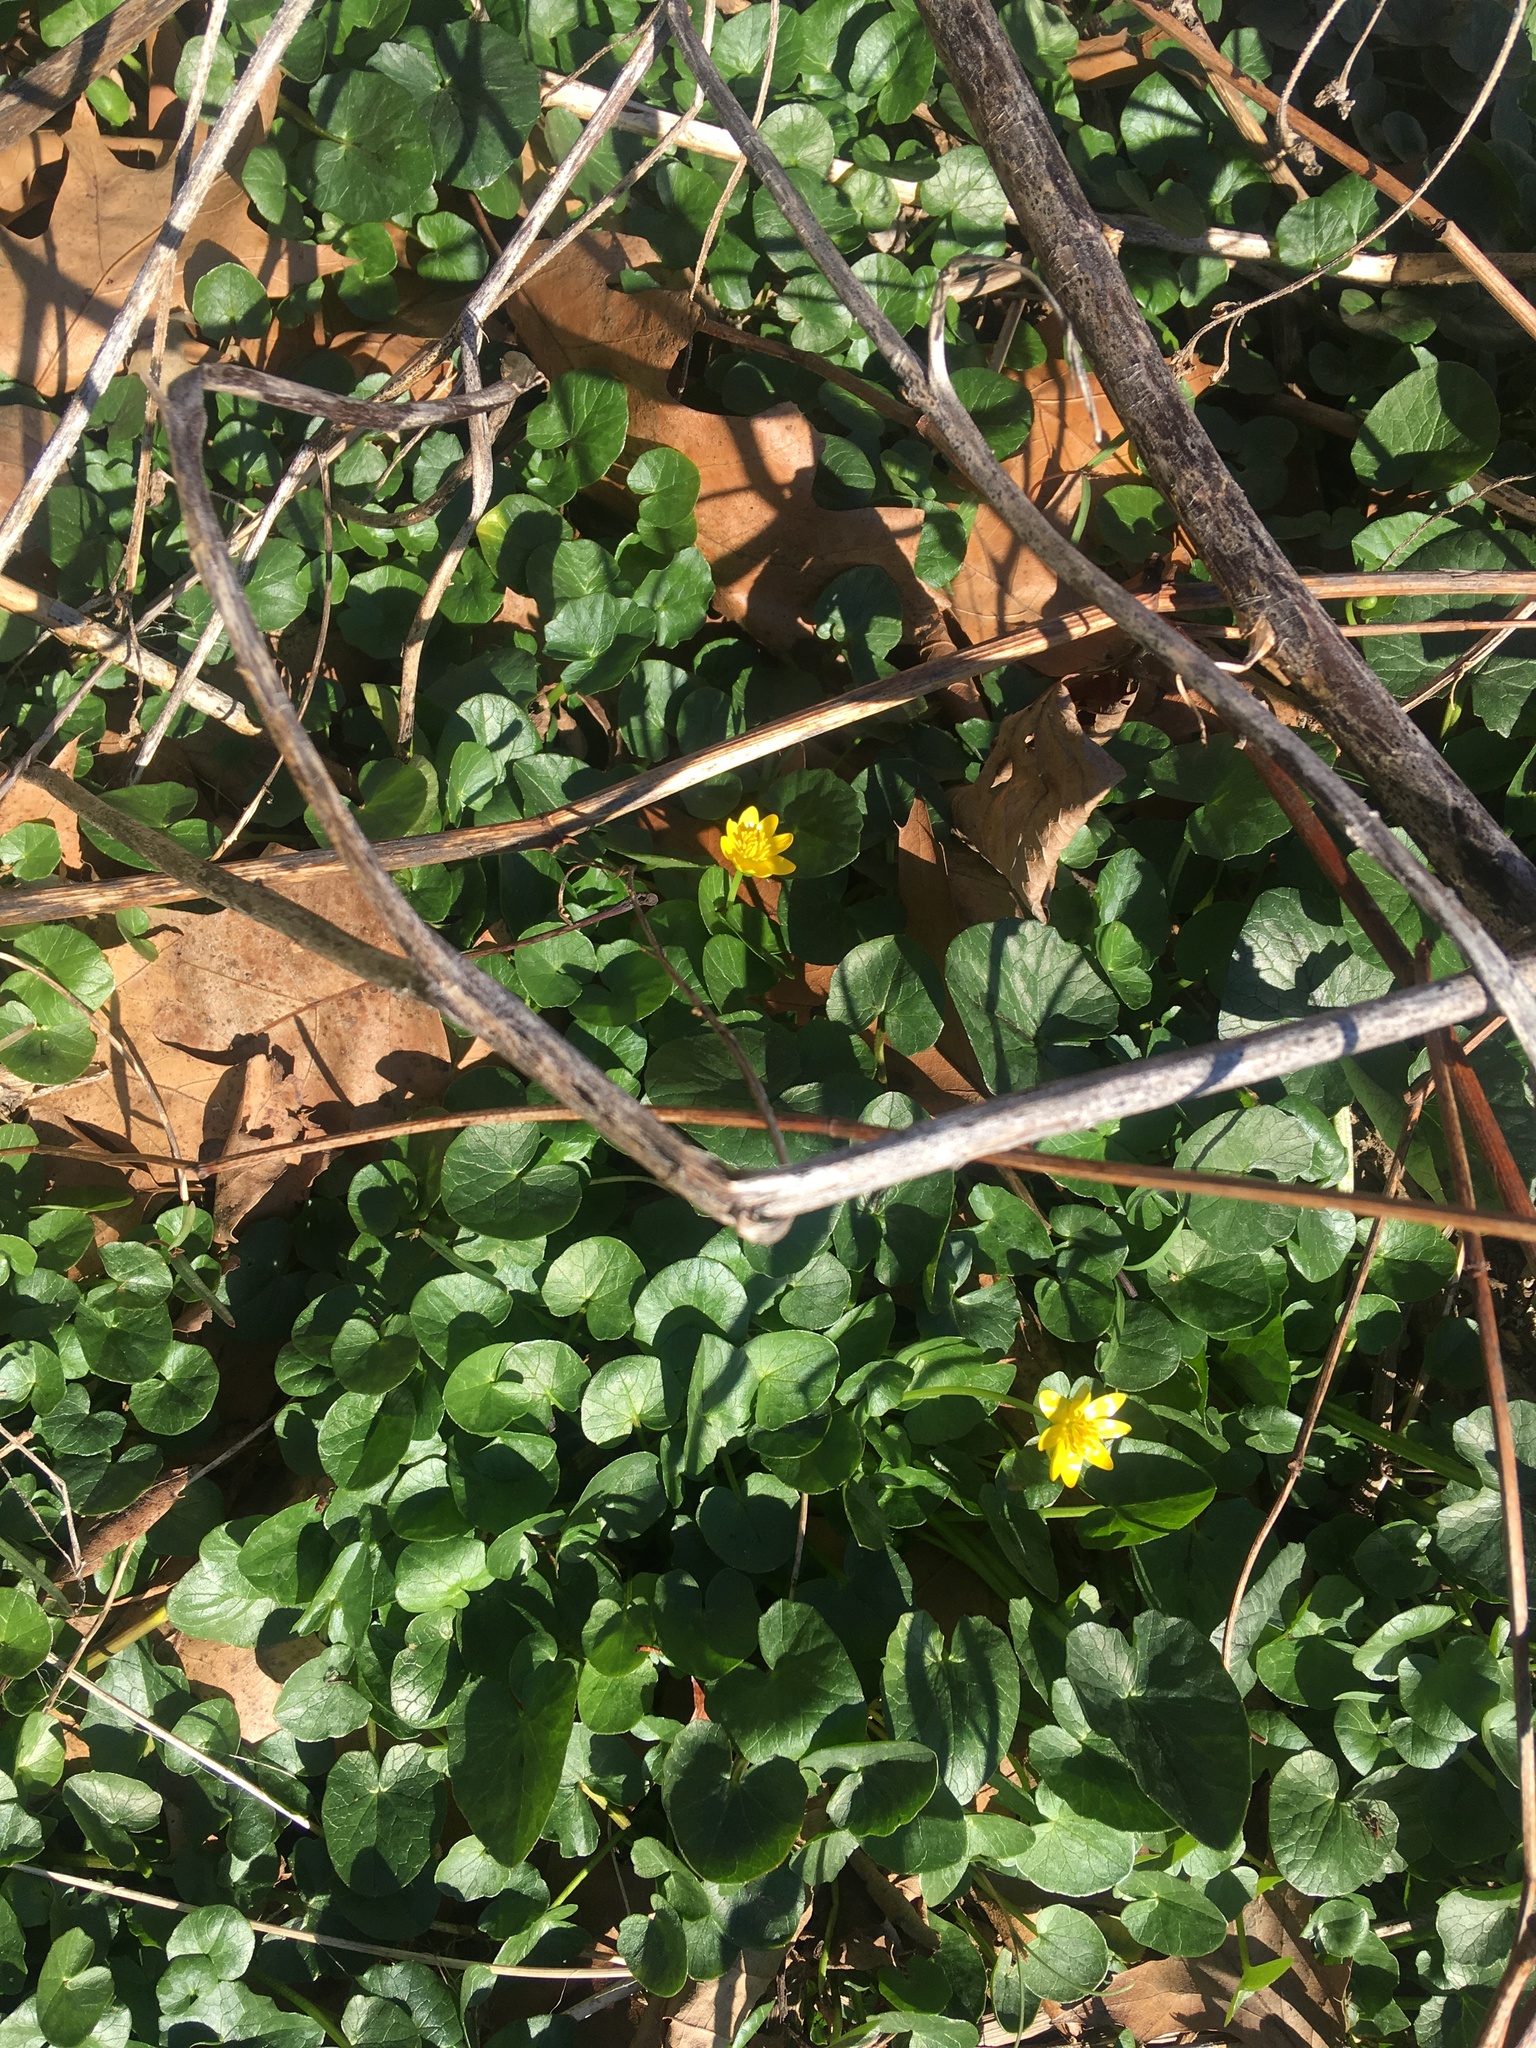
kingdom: Plantae
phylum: Tracheophyta
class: Magnoliopsida
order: Ranunculales
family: Ranunculaceae
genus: Ficaria
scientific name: Ficaria verna
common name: Lesser celandine
